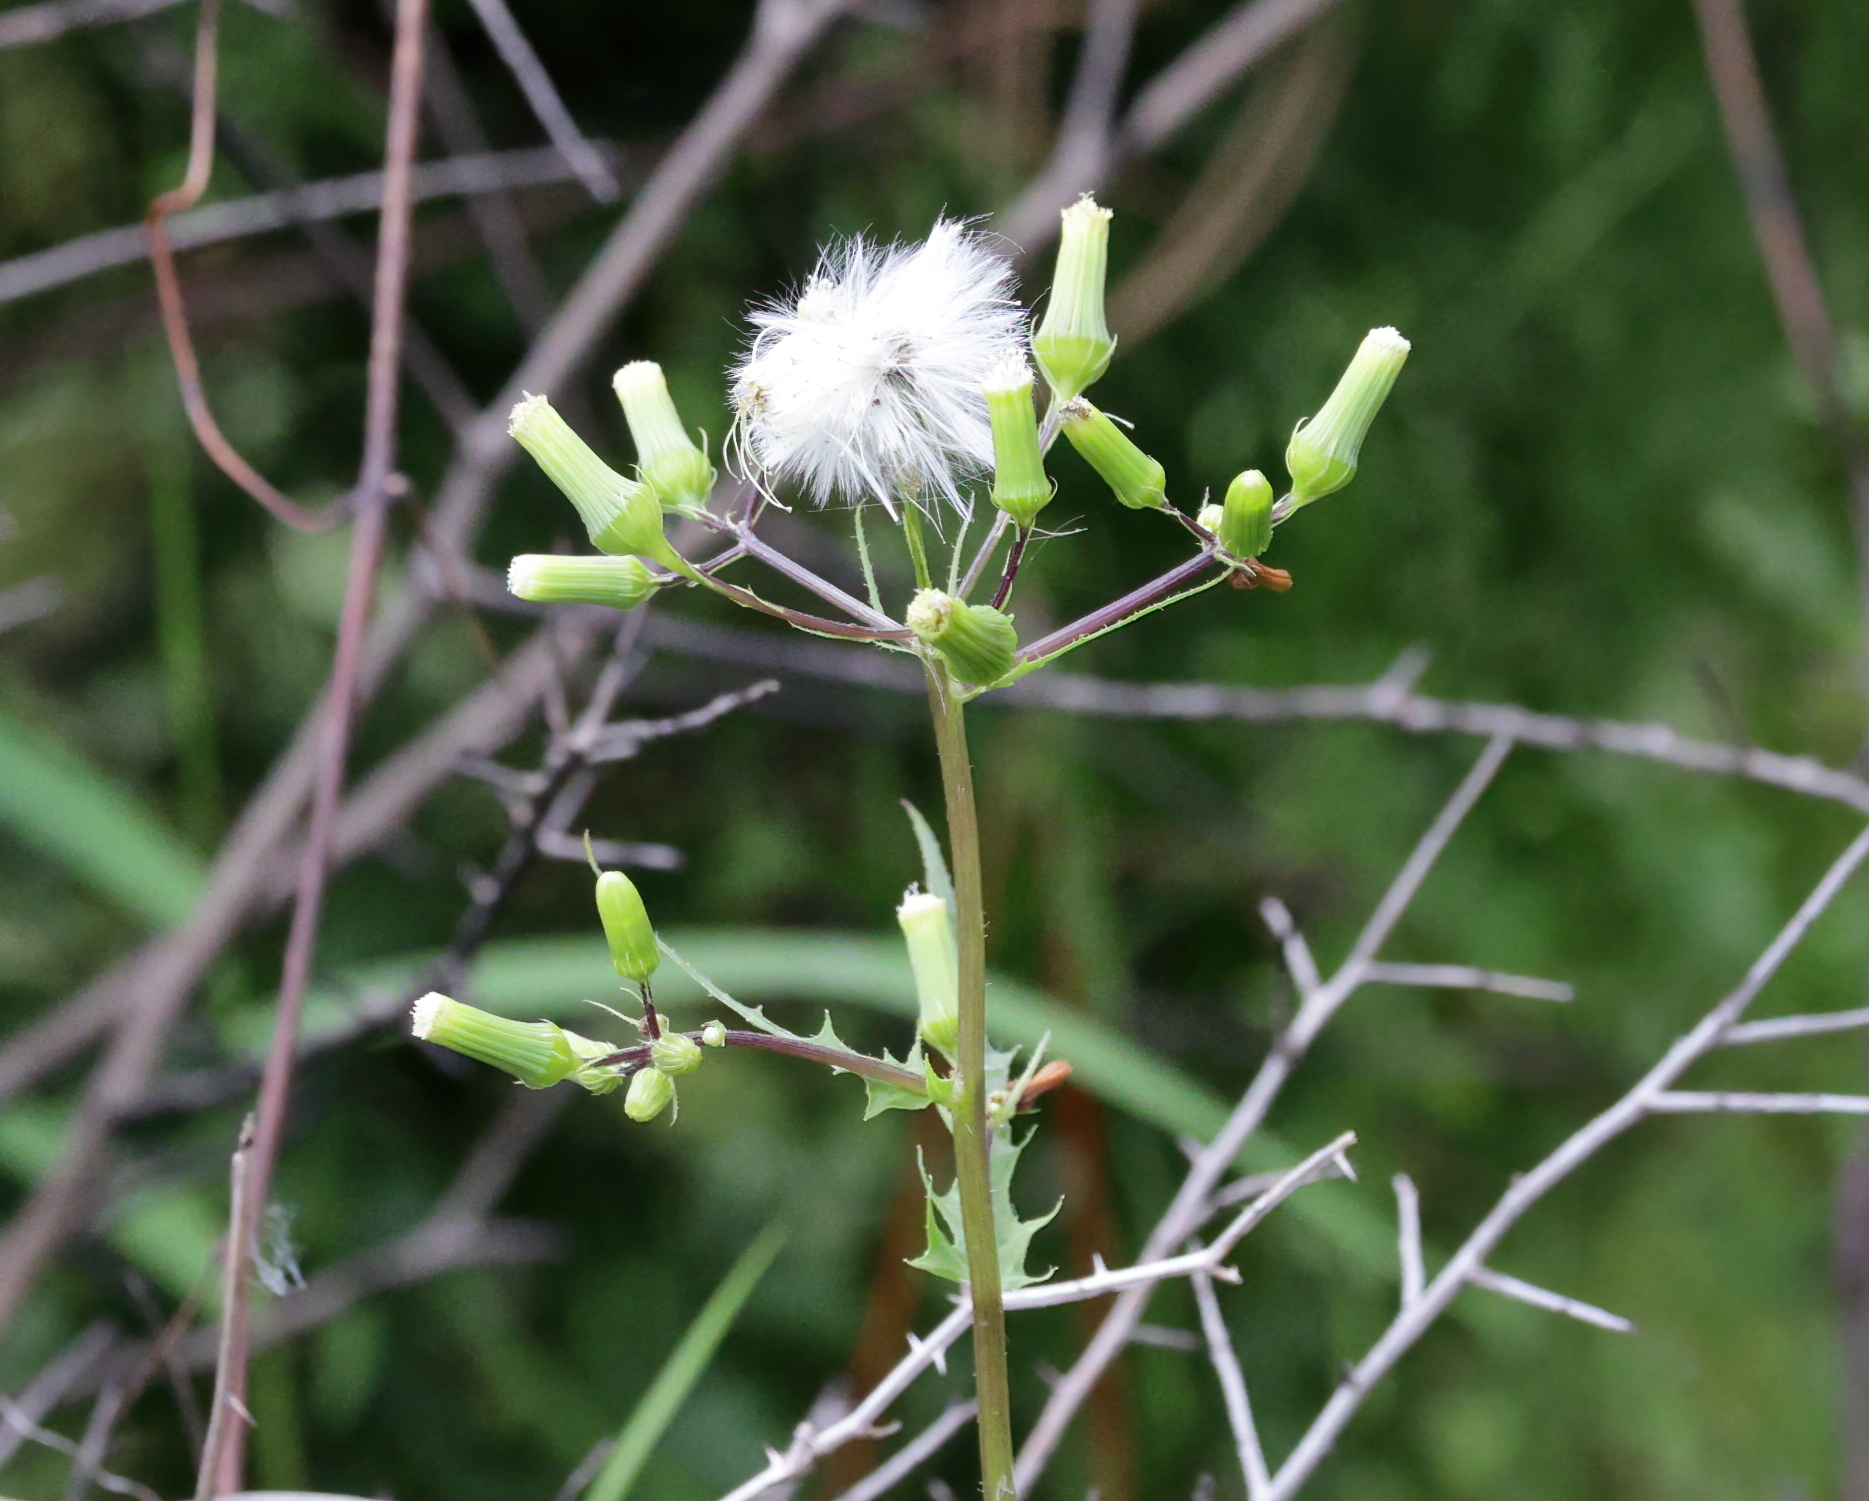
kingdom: Plantae
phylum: Tracheophyta
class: Magnoliopsida
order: Asterales
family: Asteraceae
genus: Erechtites
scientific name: Erechtites hieraciifolius
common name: American burnweed
